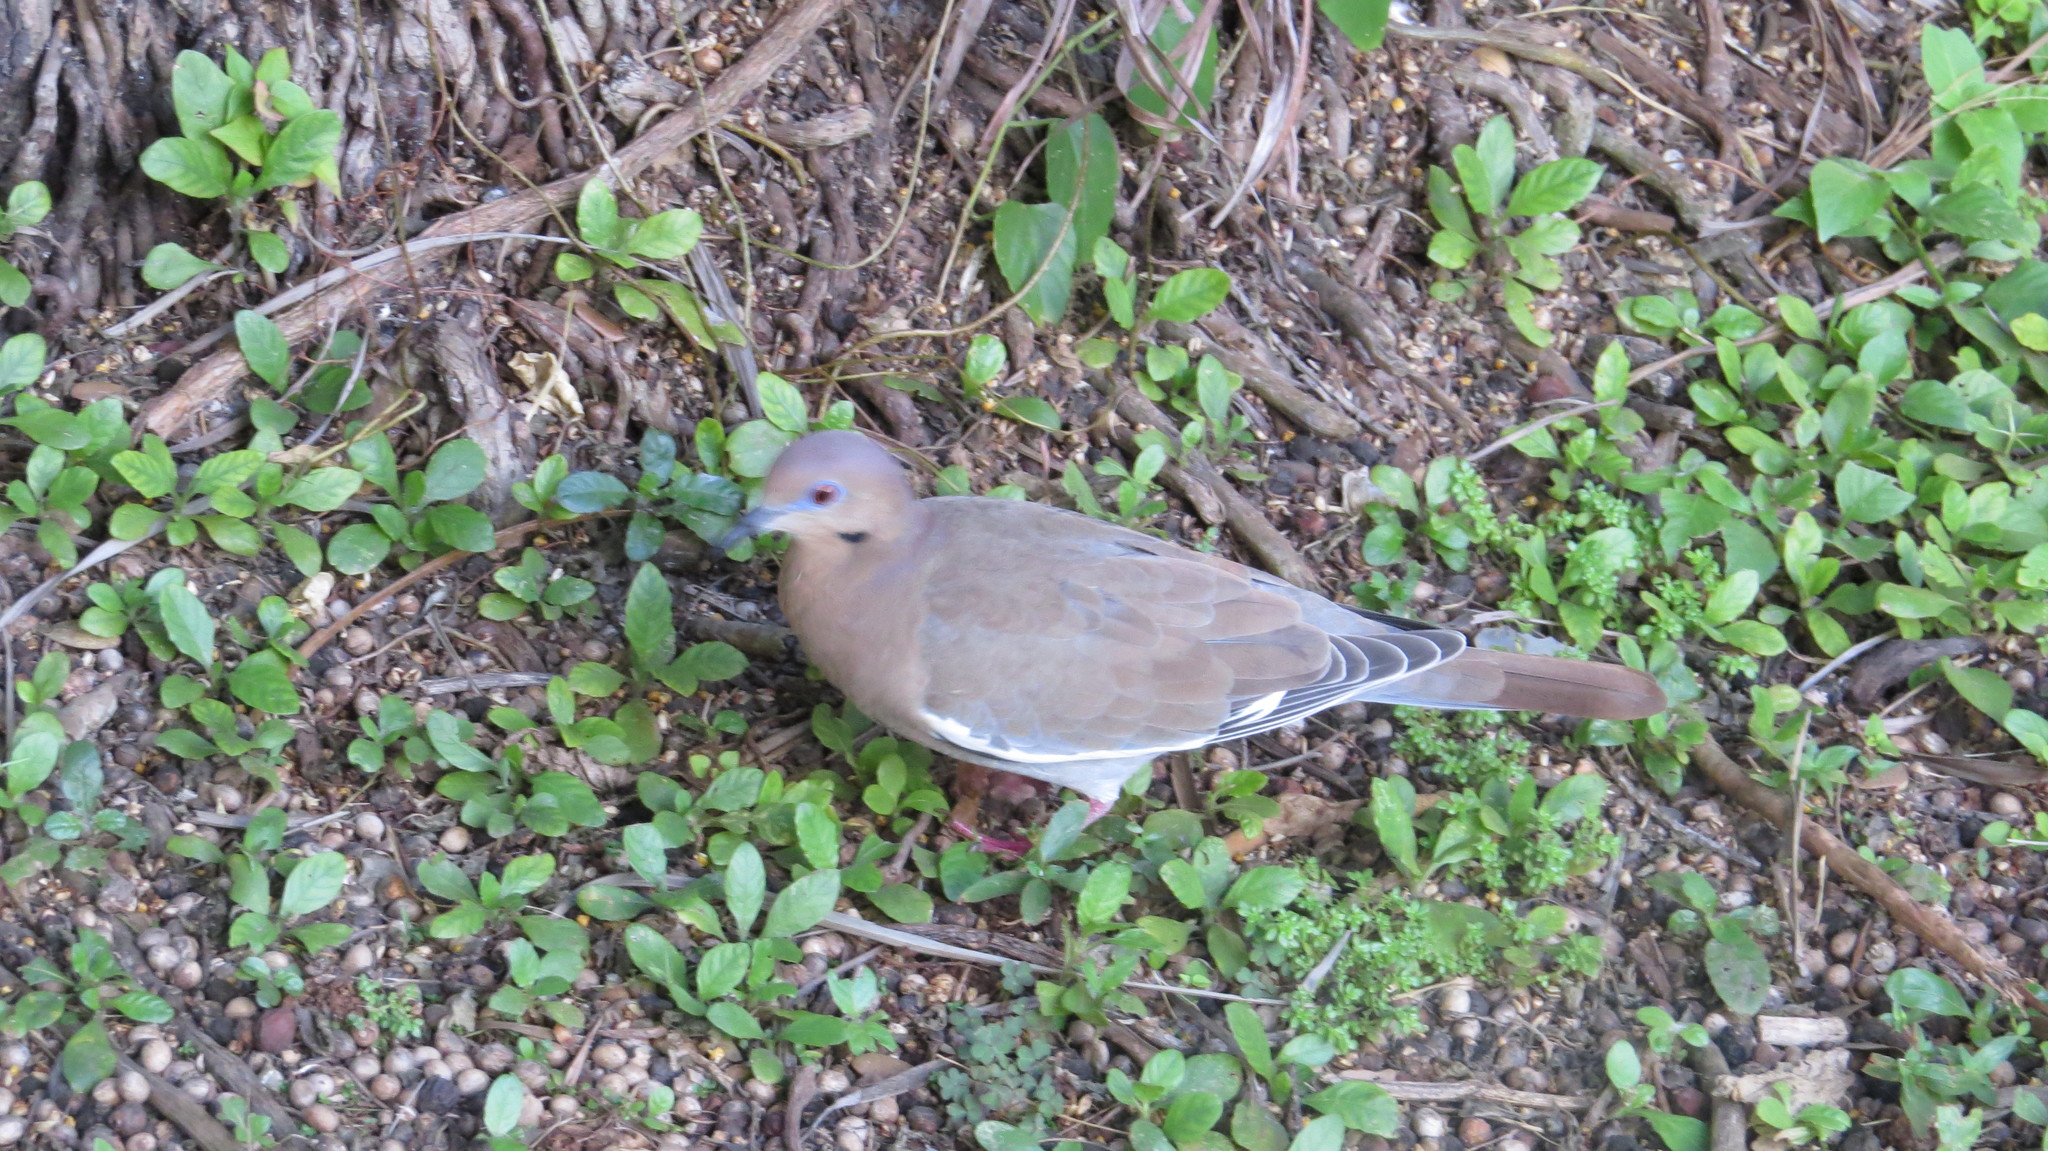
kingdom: Animalia
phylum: Chordata
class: Aves
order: Columbiformes
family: Columbidae
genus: Zenaida
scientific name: Zenaida asiatica
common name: White-winged dove
